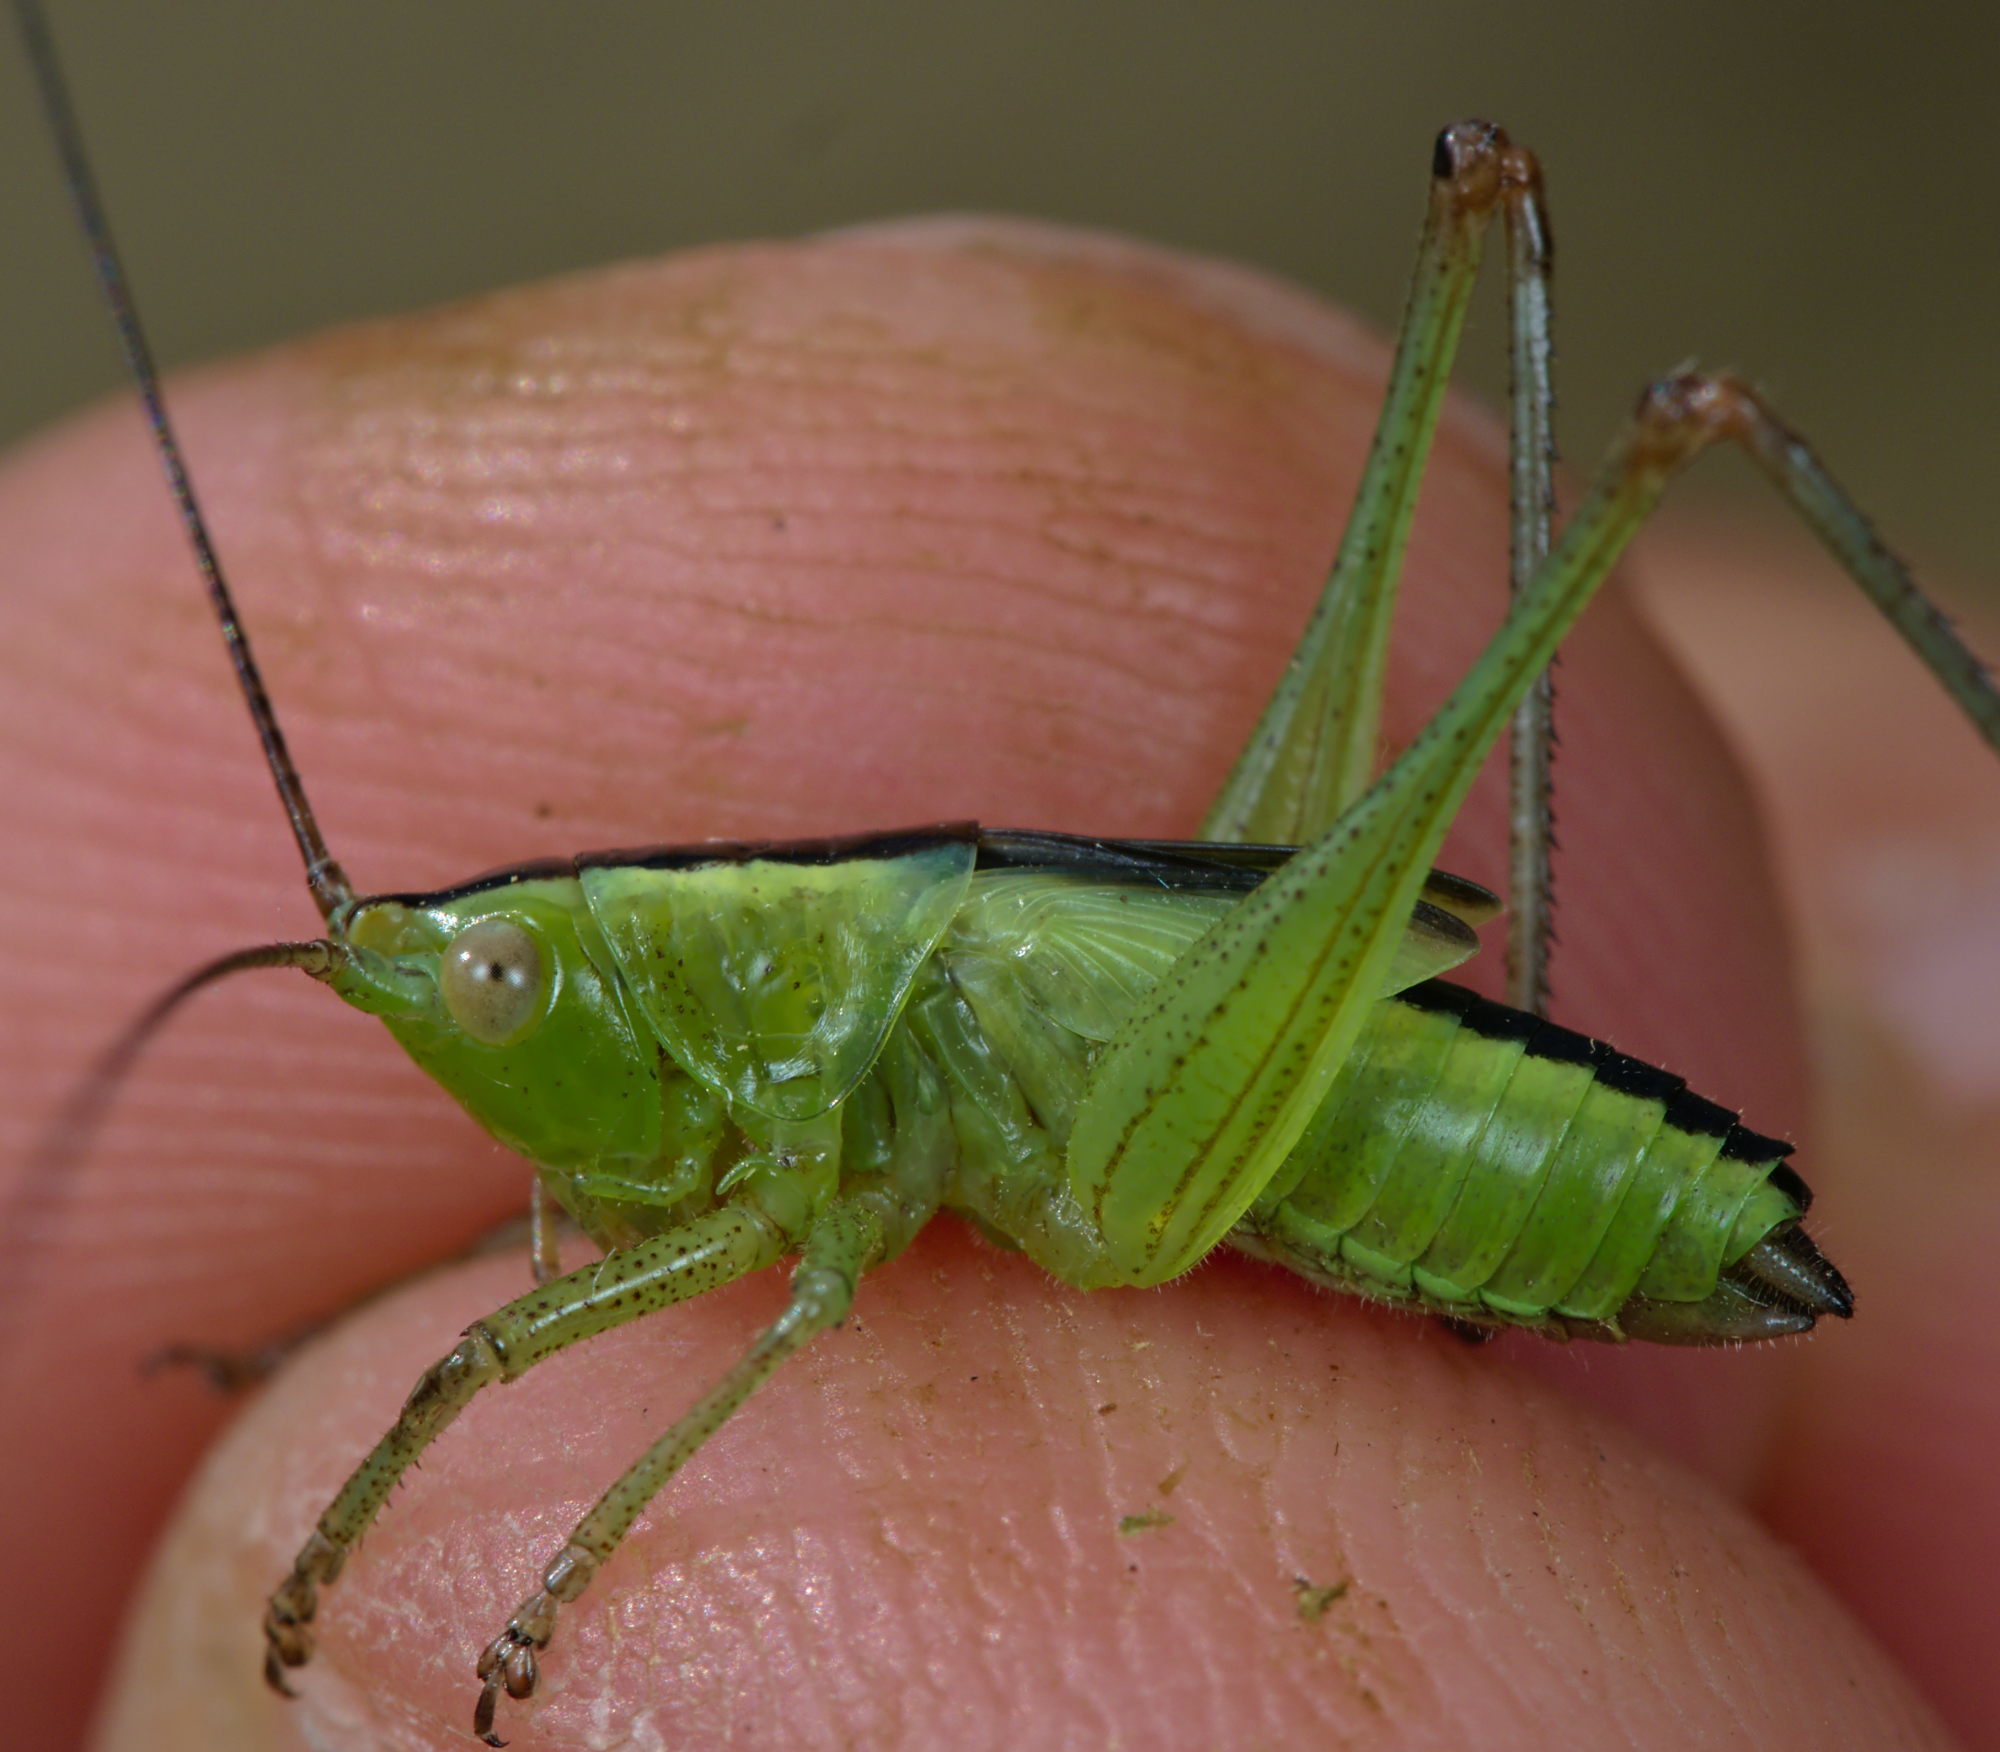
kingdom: Animalia
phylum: Arthropoda
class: Insecta
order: Orthoptera
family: Tettigoniidae
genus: Conocephalus
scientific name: Conocephalus fuscus
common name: Long-winged conehead
